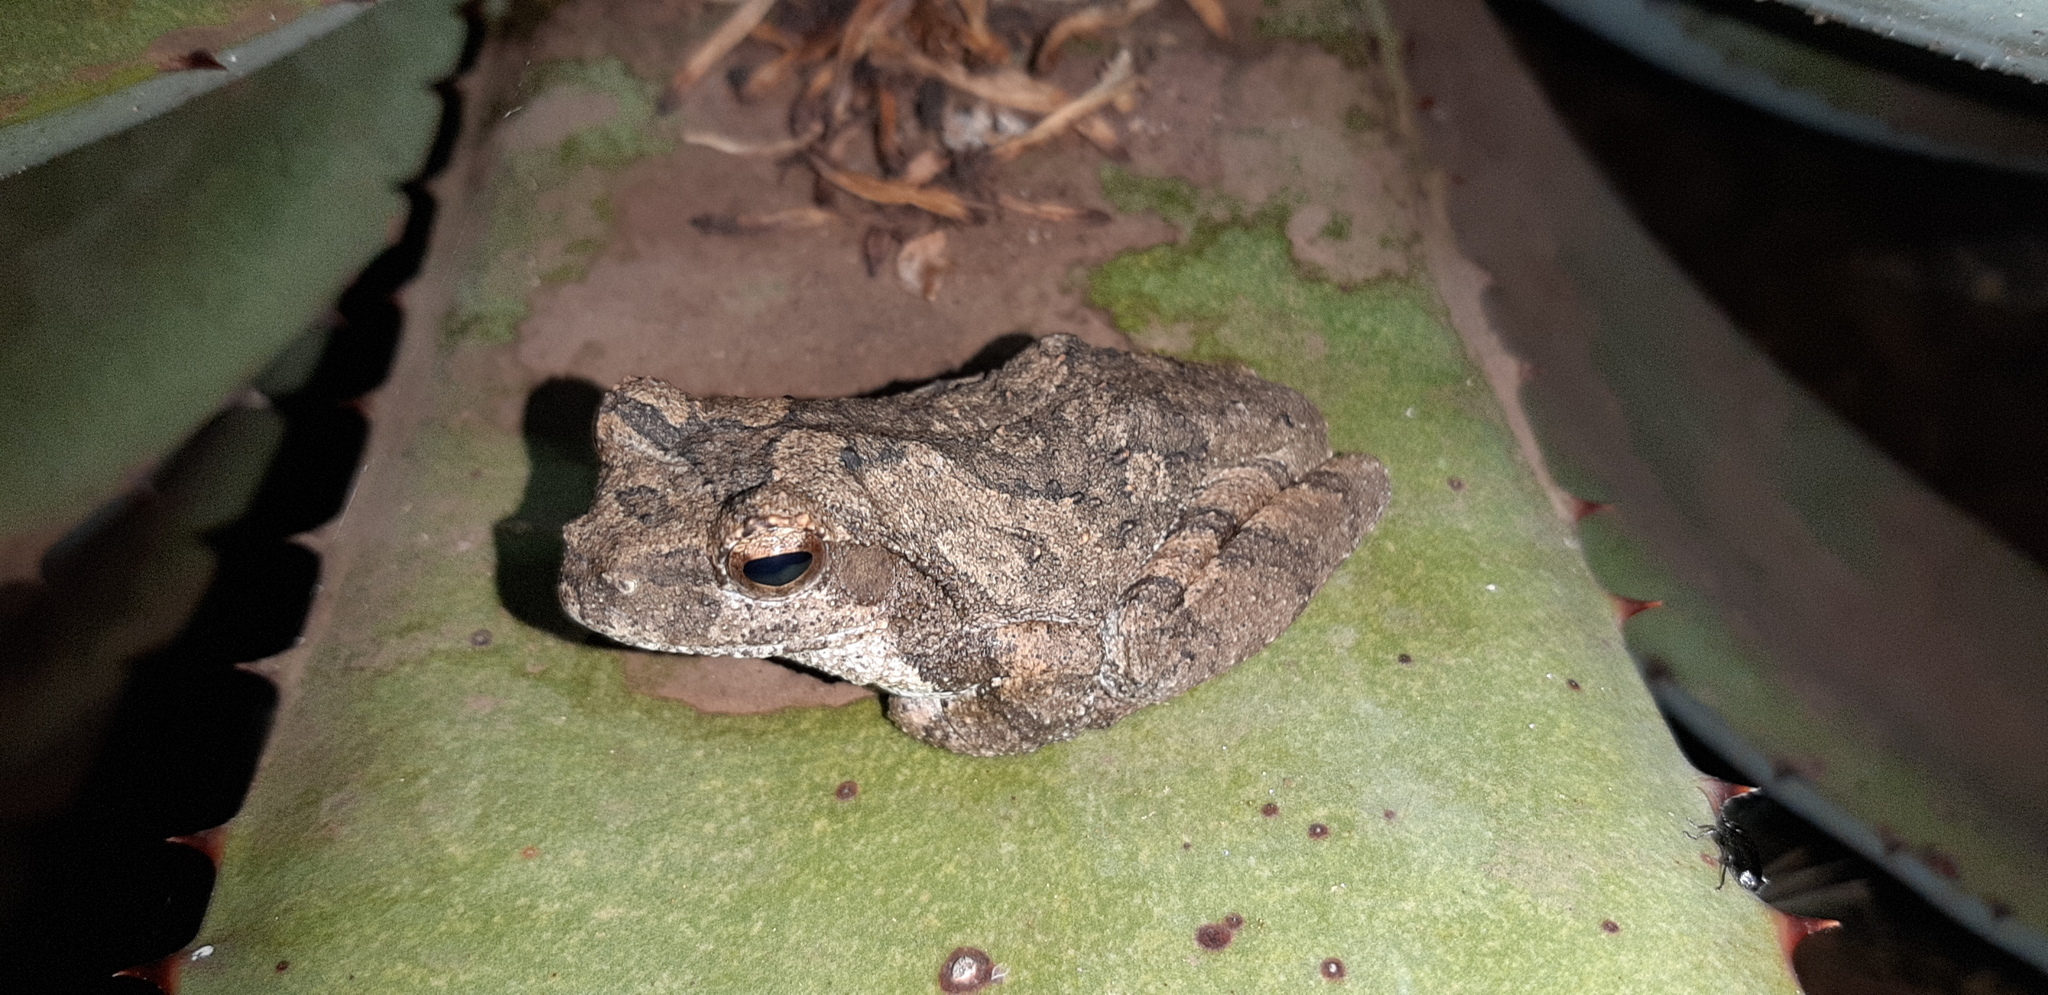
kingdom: Animalia
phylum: Chordata
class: Amphibia
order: Anura
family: Rhacophoridae
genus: Chiromantis
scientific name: Chiromantis xerampelina
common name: African gray treefrog
